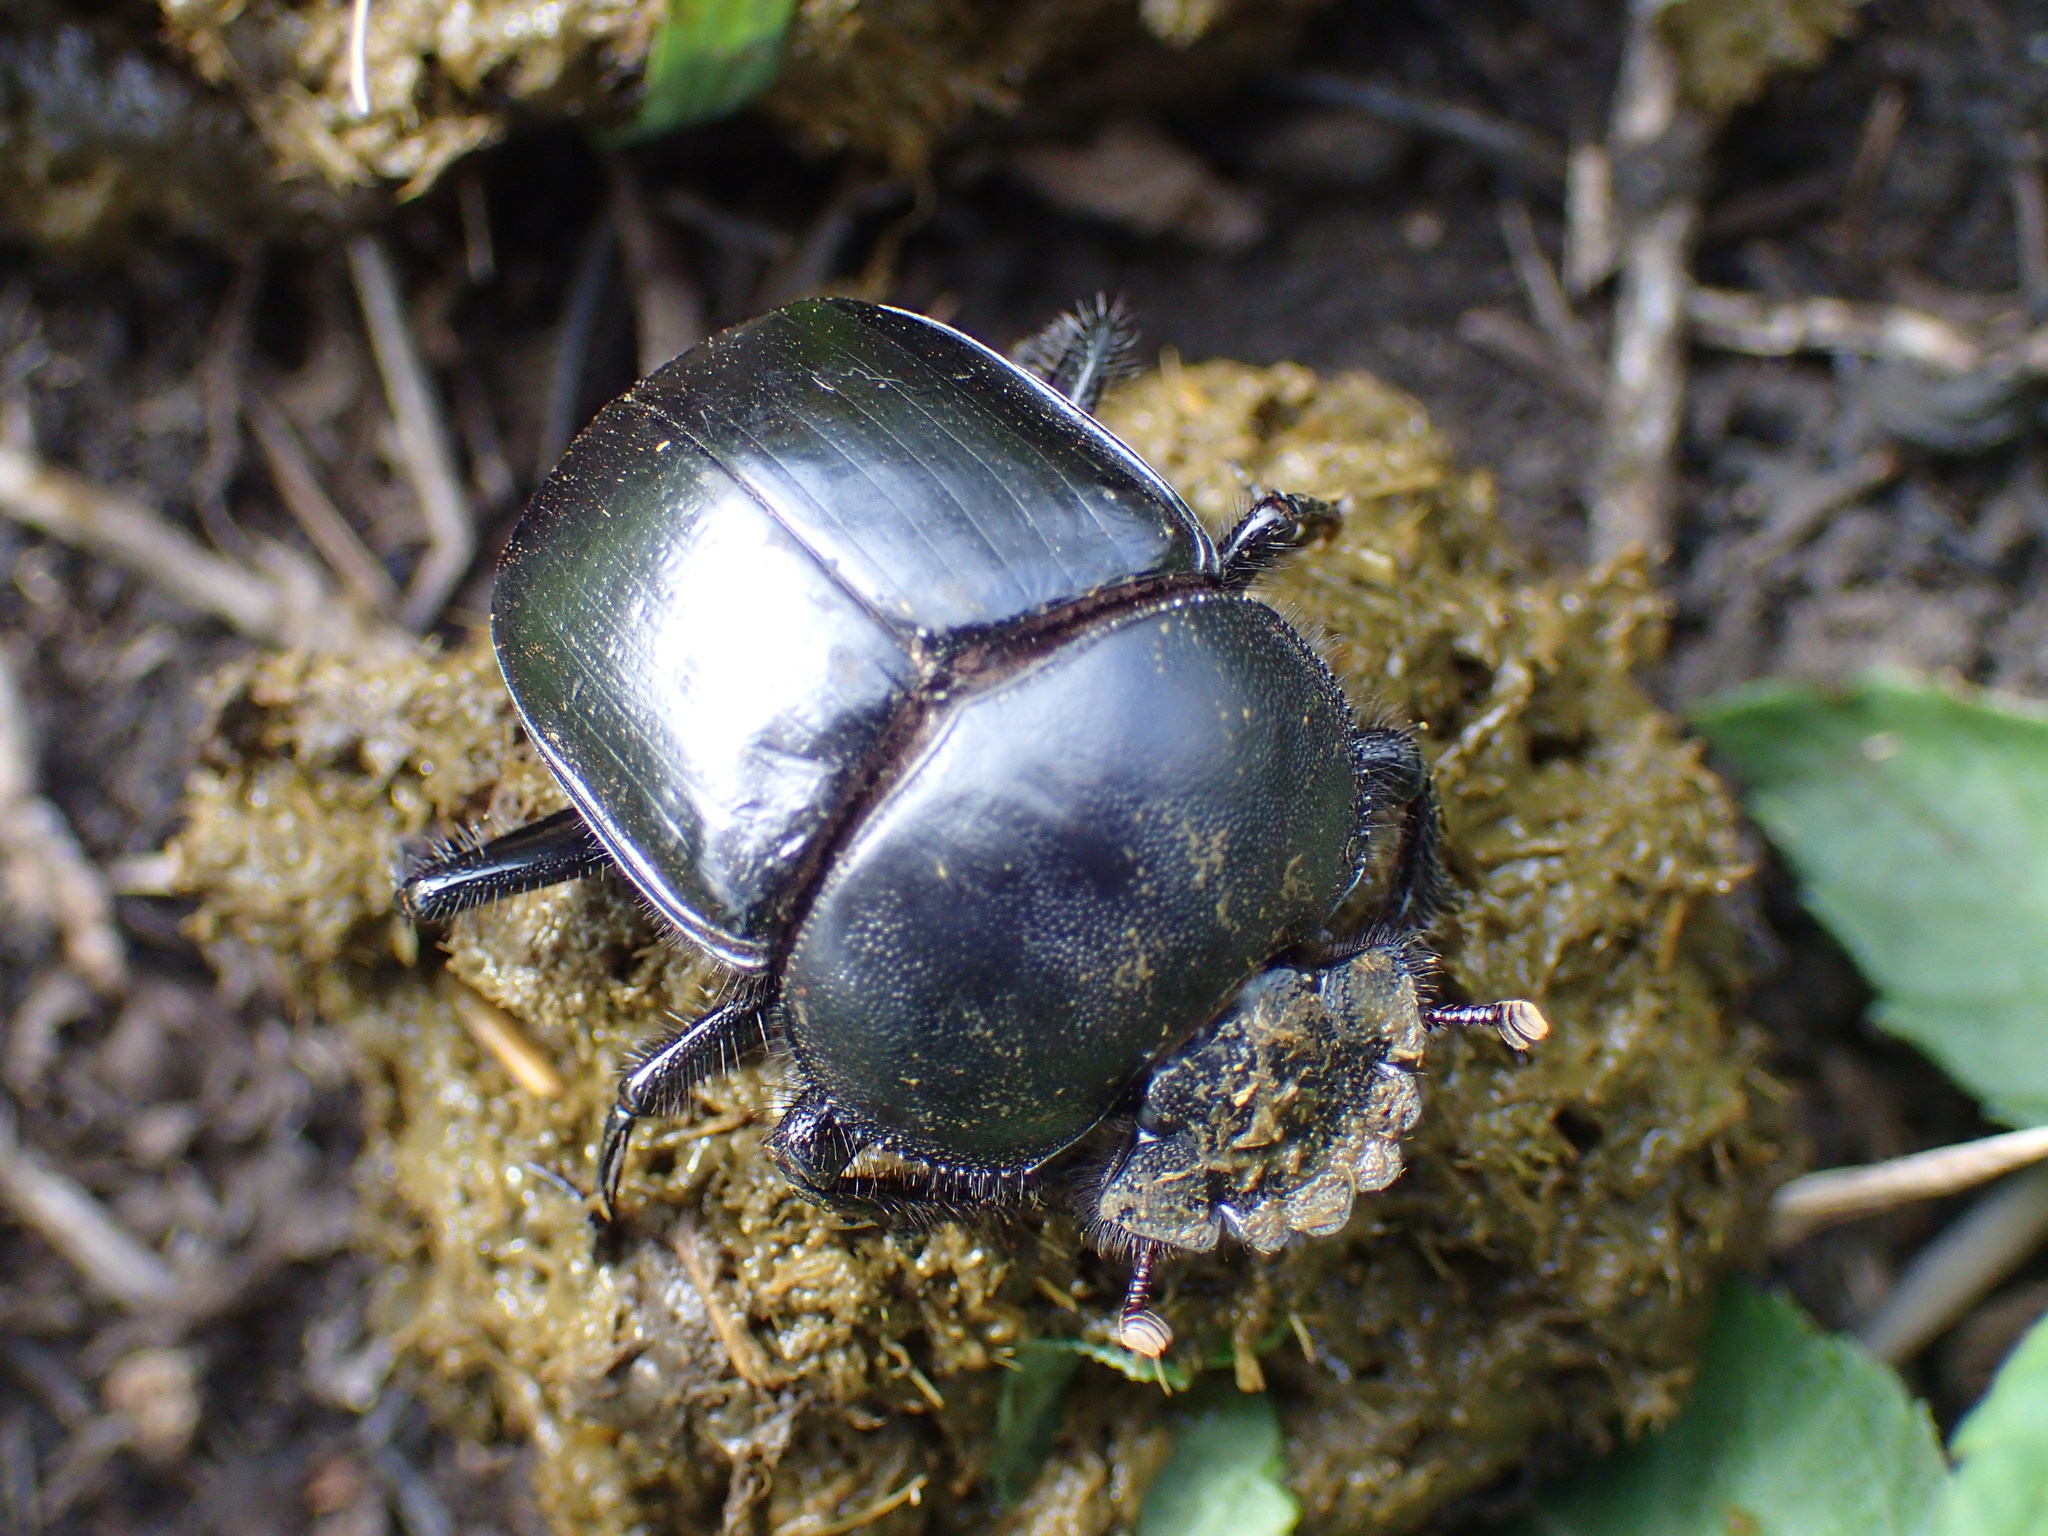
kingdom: Animalia
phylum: Arthropoda
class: Insecta
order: Coleoptera
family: Scarabaeidae
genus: Kheper
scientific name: Kheper prodigiosus
